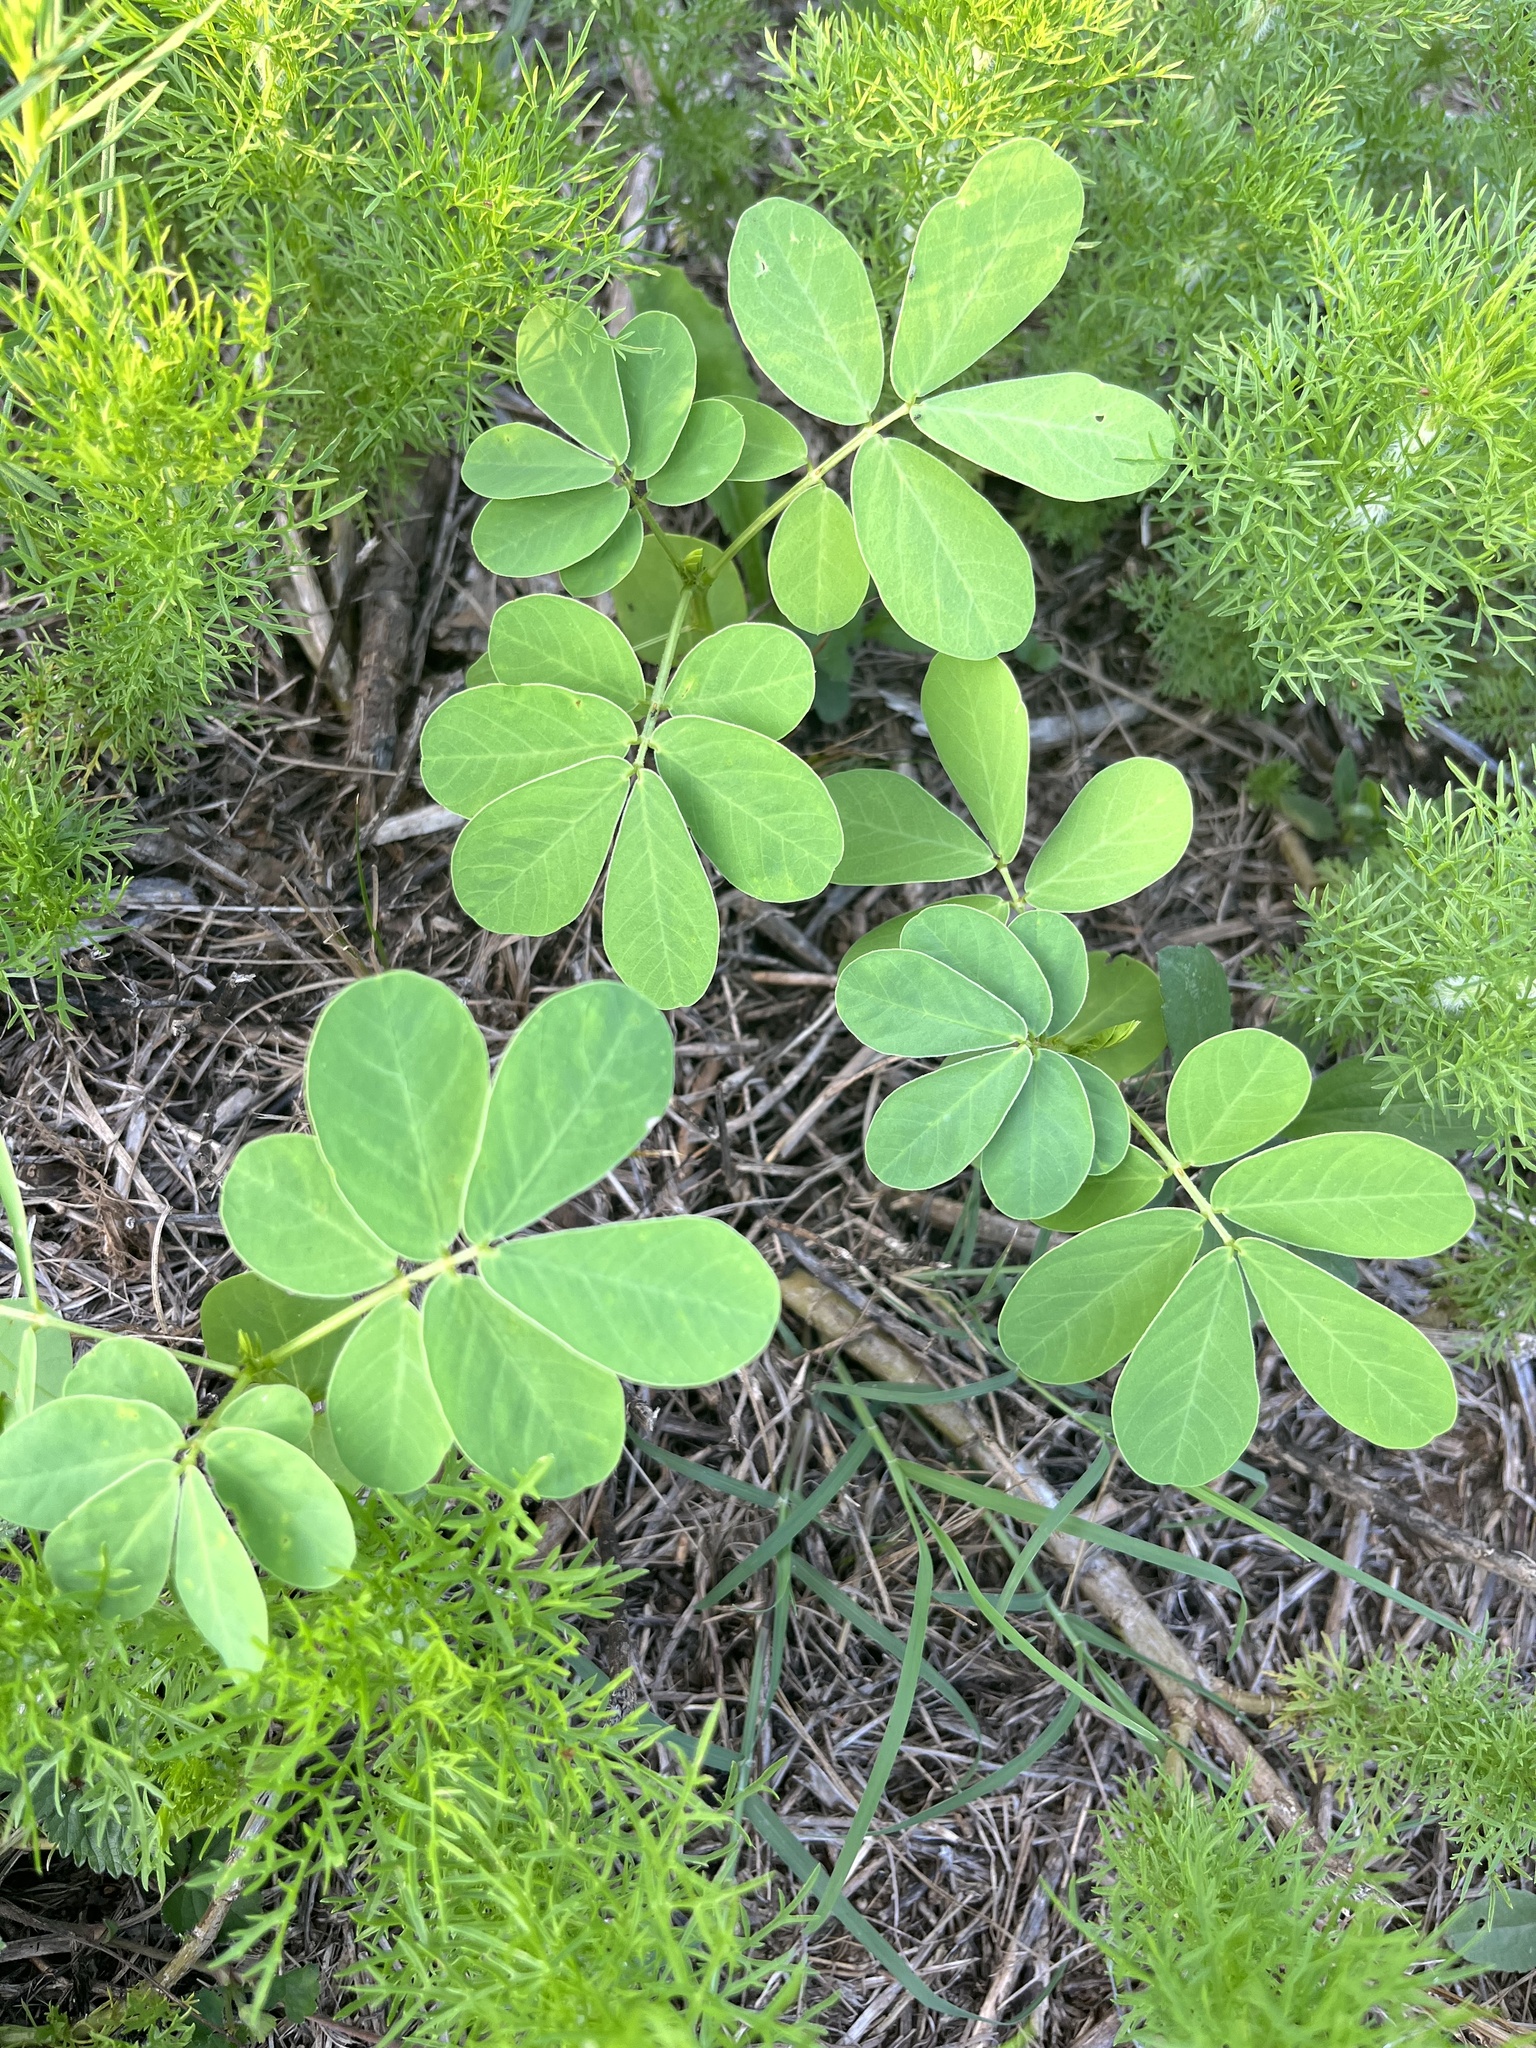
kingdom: Plantae
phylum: Tracheophyta
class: Magnoliopsida
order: Fabales
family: Fabaceae
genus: Senna
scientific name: Senna obtusifolia
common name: Java-bean
